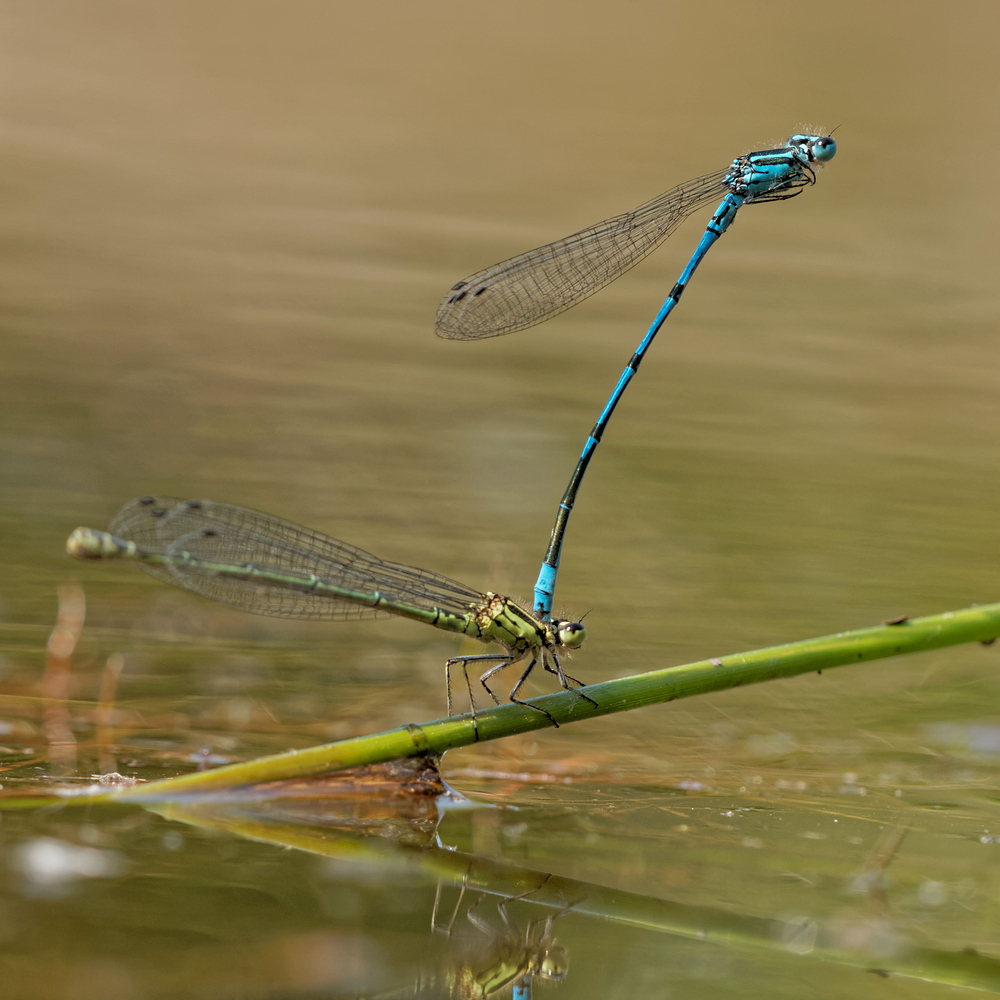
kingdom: Animalia
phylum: Arthropoda
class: Insecta
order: Odonata
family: Coenagrionidae
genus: Coenagrion
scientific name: Coenagrion puella
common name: Azure damselfly
